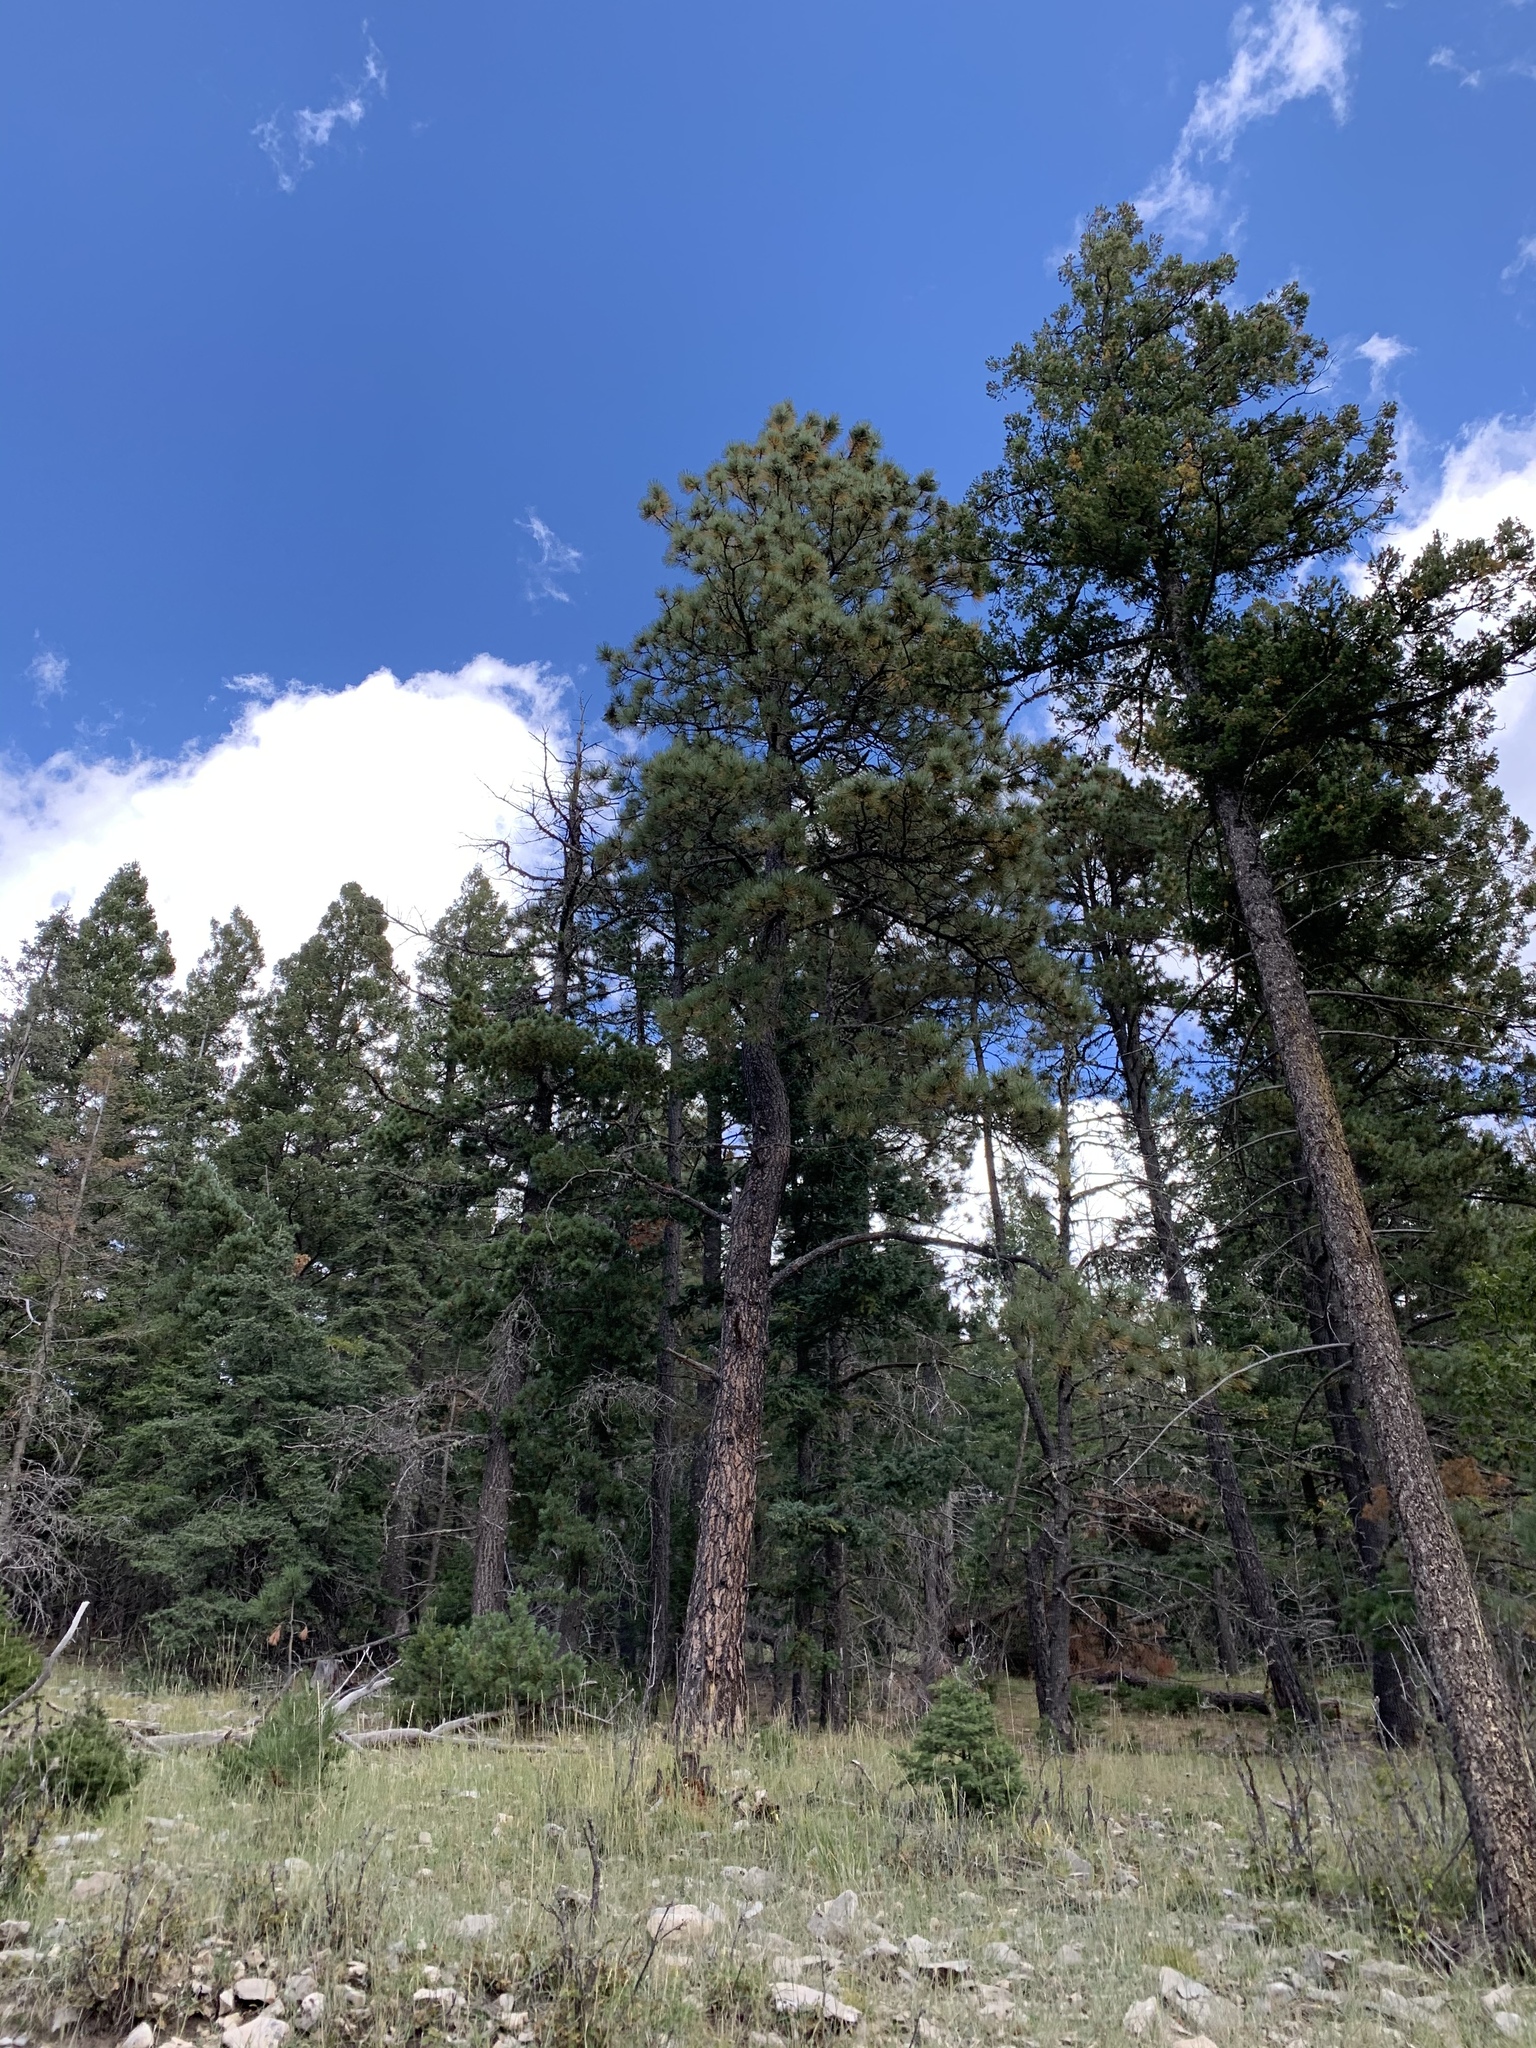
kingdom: Plantae
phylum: Tracheophyta
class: Pinopsida
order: Pinales
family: Pinaceae
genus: Pinus
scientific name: Pinus ponderosa
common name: Western yellow-pine
